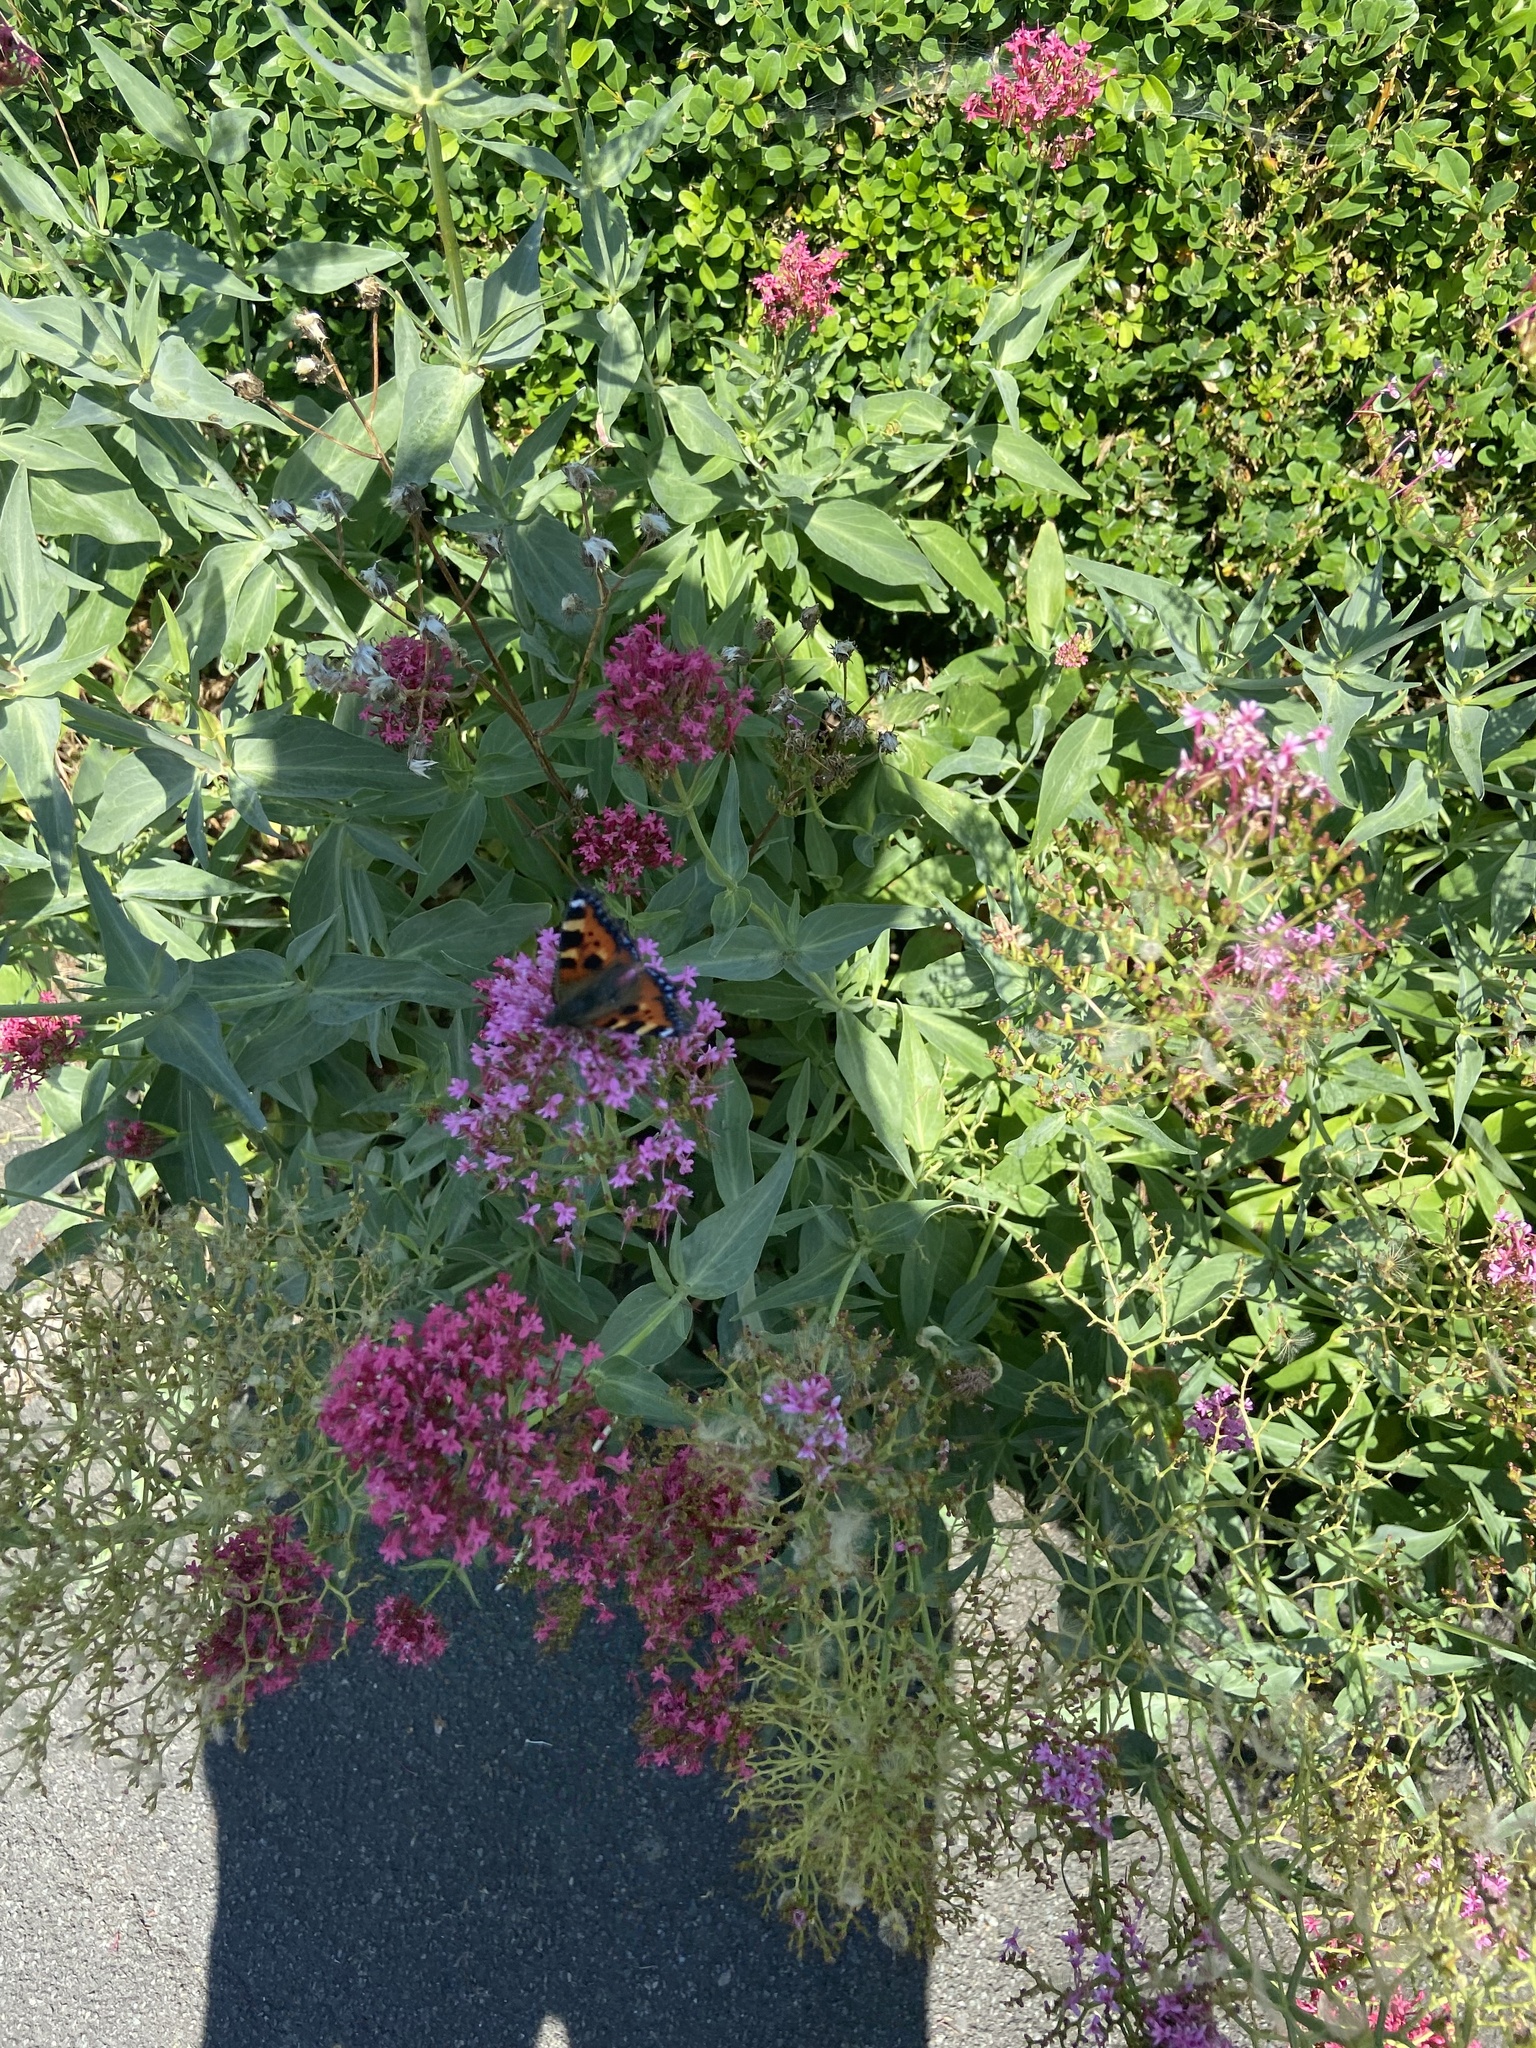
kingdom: Animalia
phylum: Arthropoda
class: Insecta
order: Lepidoptera
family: Nymphalidae
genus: Aglais
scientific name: Aglais urticae
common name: Small tortoiseshell
